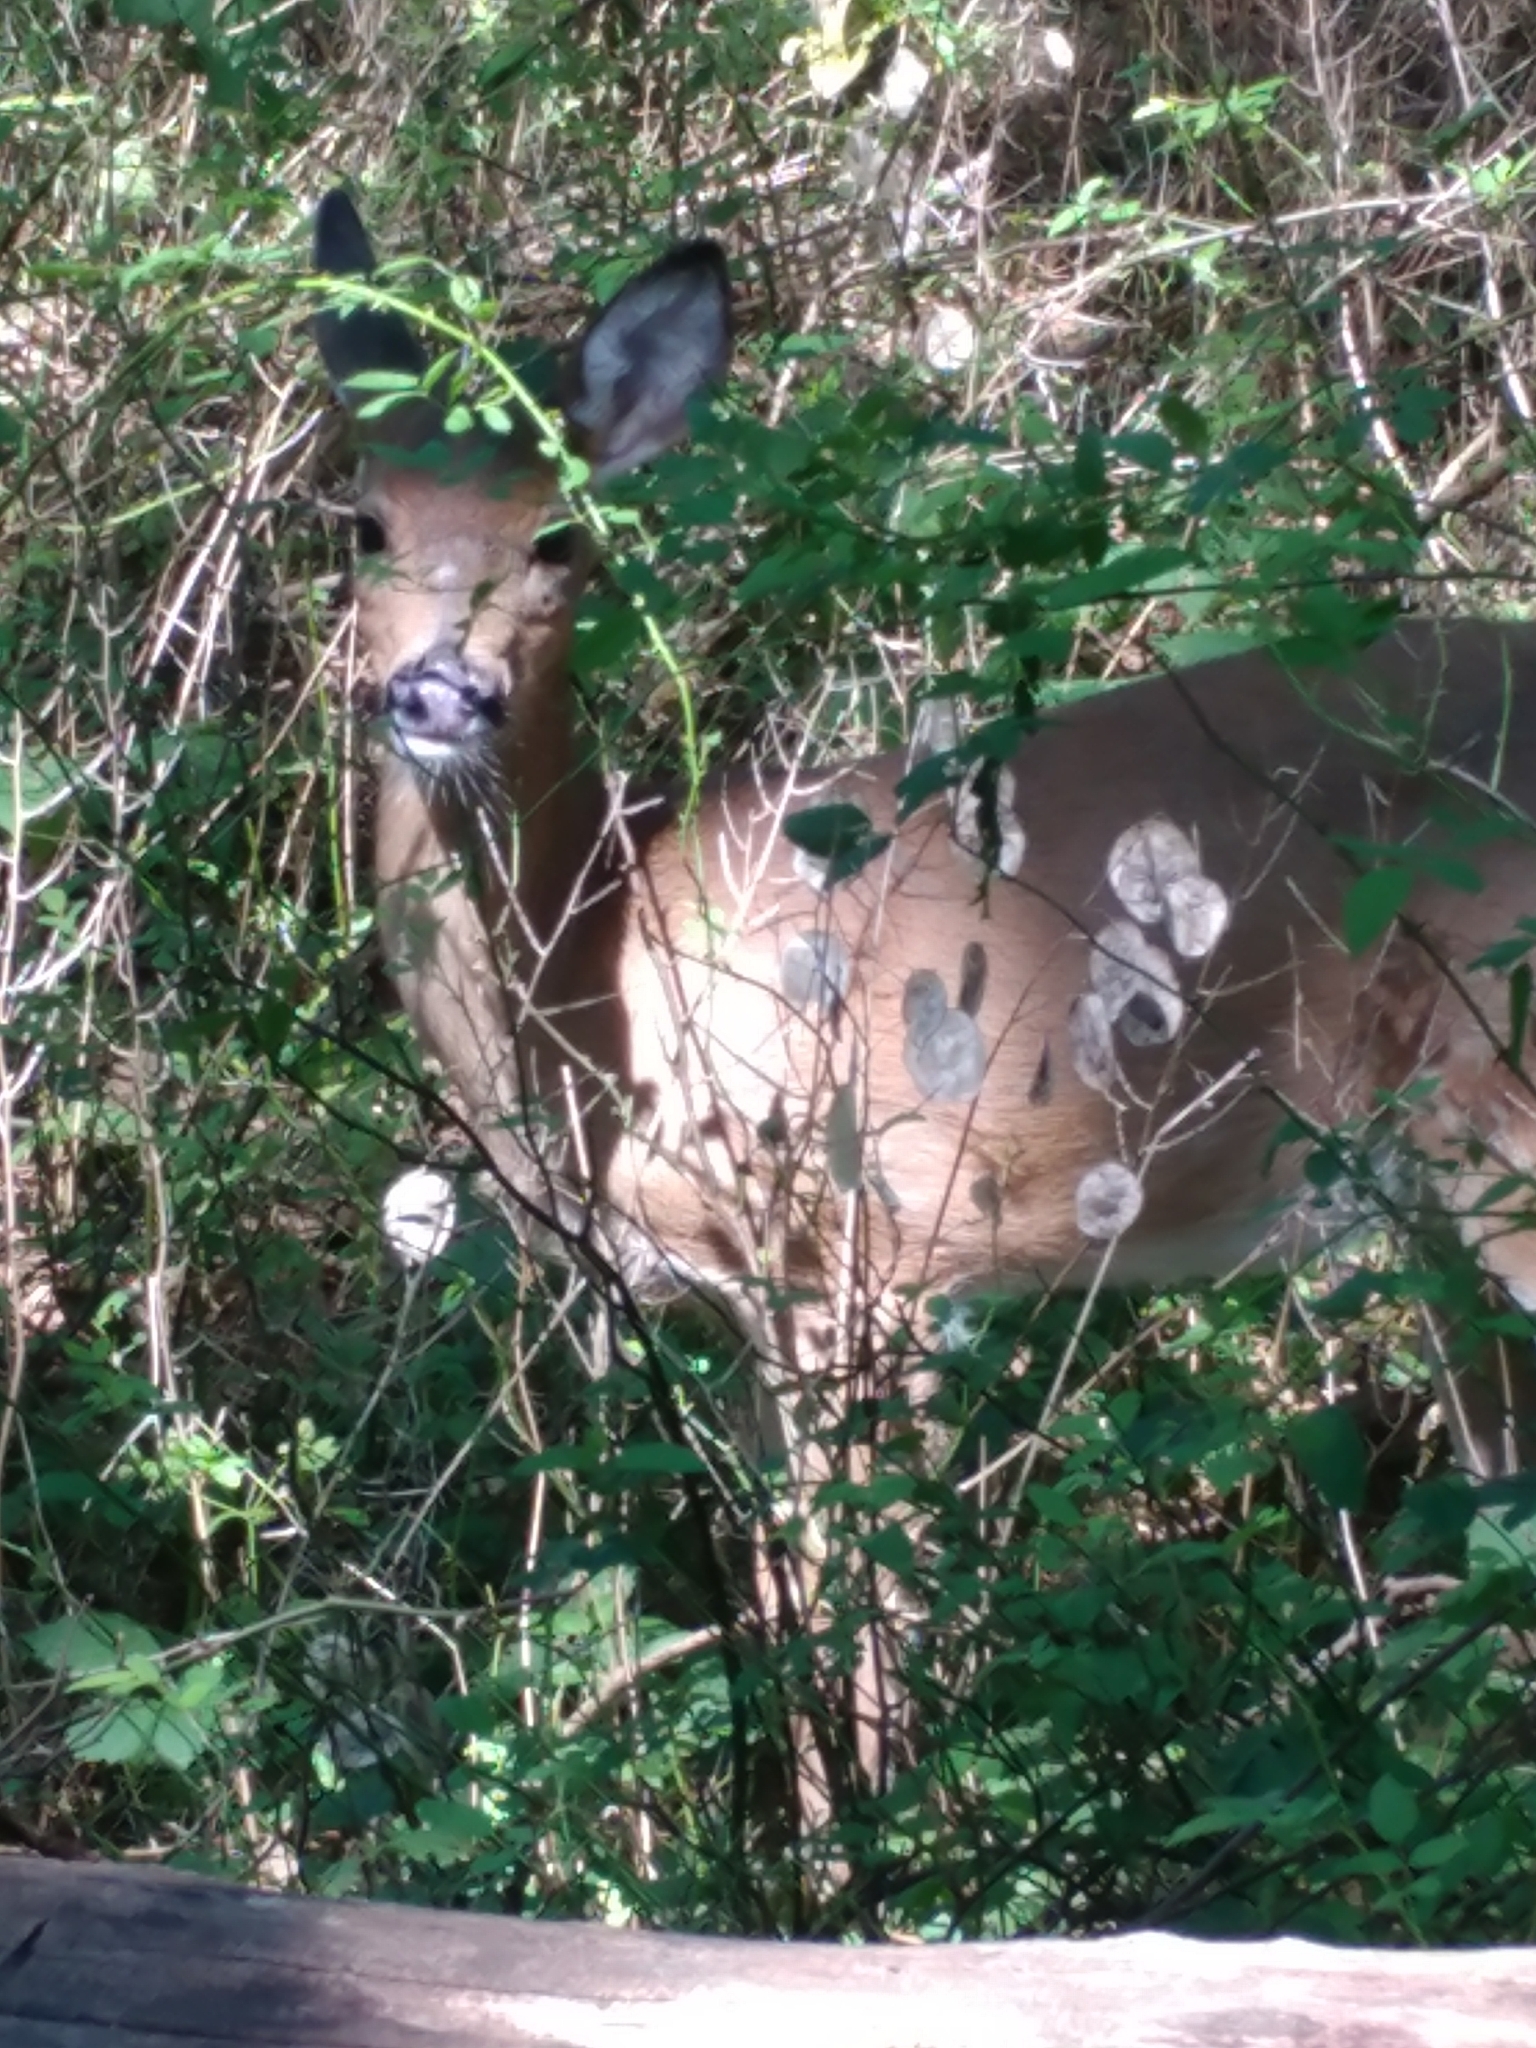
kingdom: Animalia
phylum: Chordata
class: Mammalia
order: Artiodactyla
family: Cervidae
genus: Odocoileus
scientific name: Odocoileus virginianus
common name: White-tailed deer
